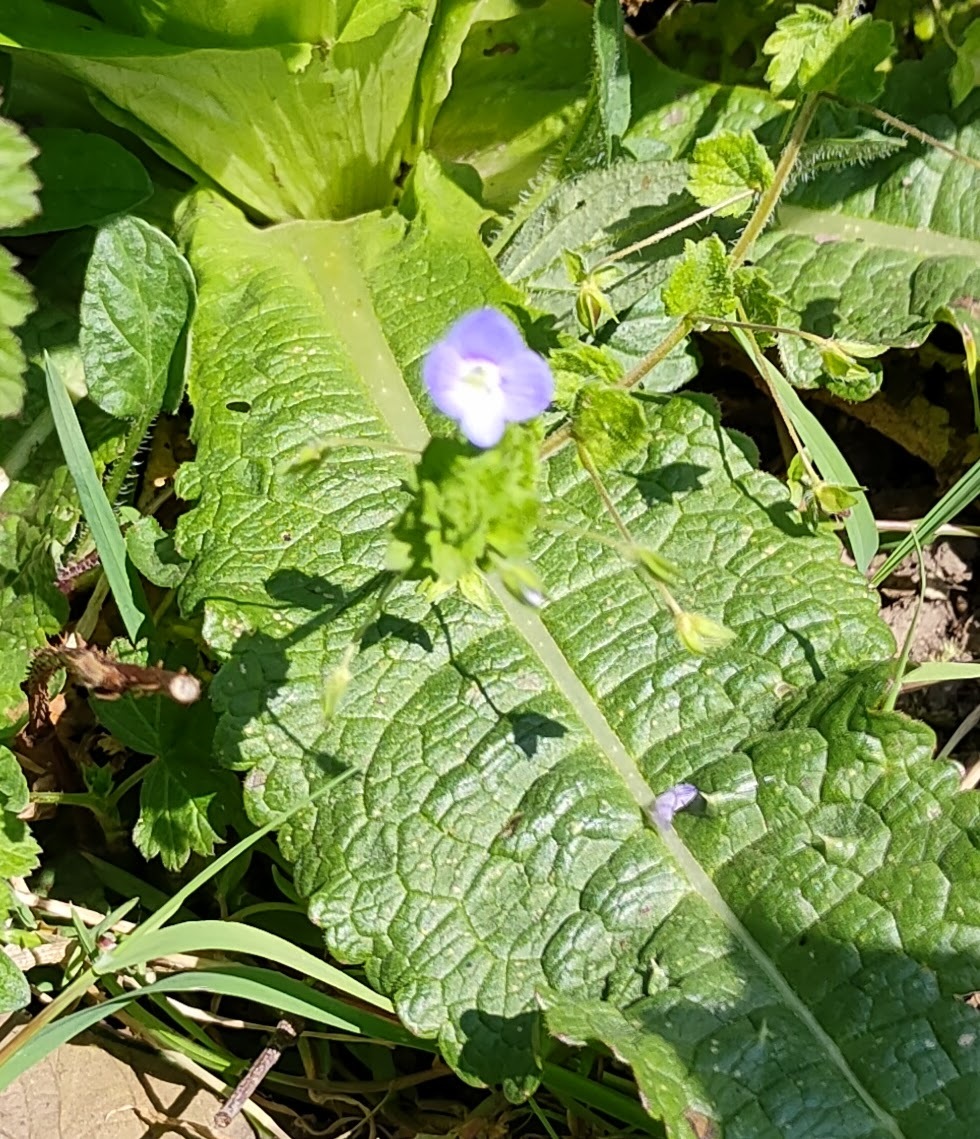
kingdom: Plantae
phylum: Tracheophyta
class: Magnoliopsida
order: Lamiales
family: Plantaginaceae
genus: Veronica
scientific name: Veronica persica
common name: Common field-speedwell
